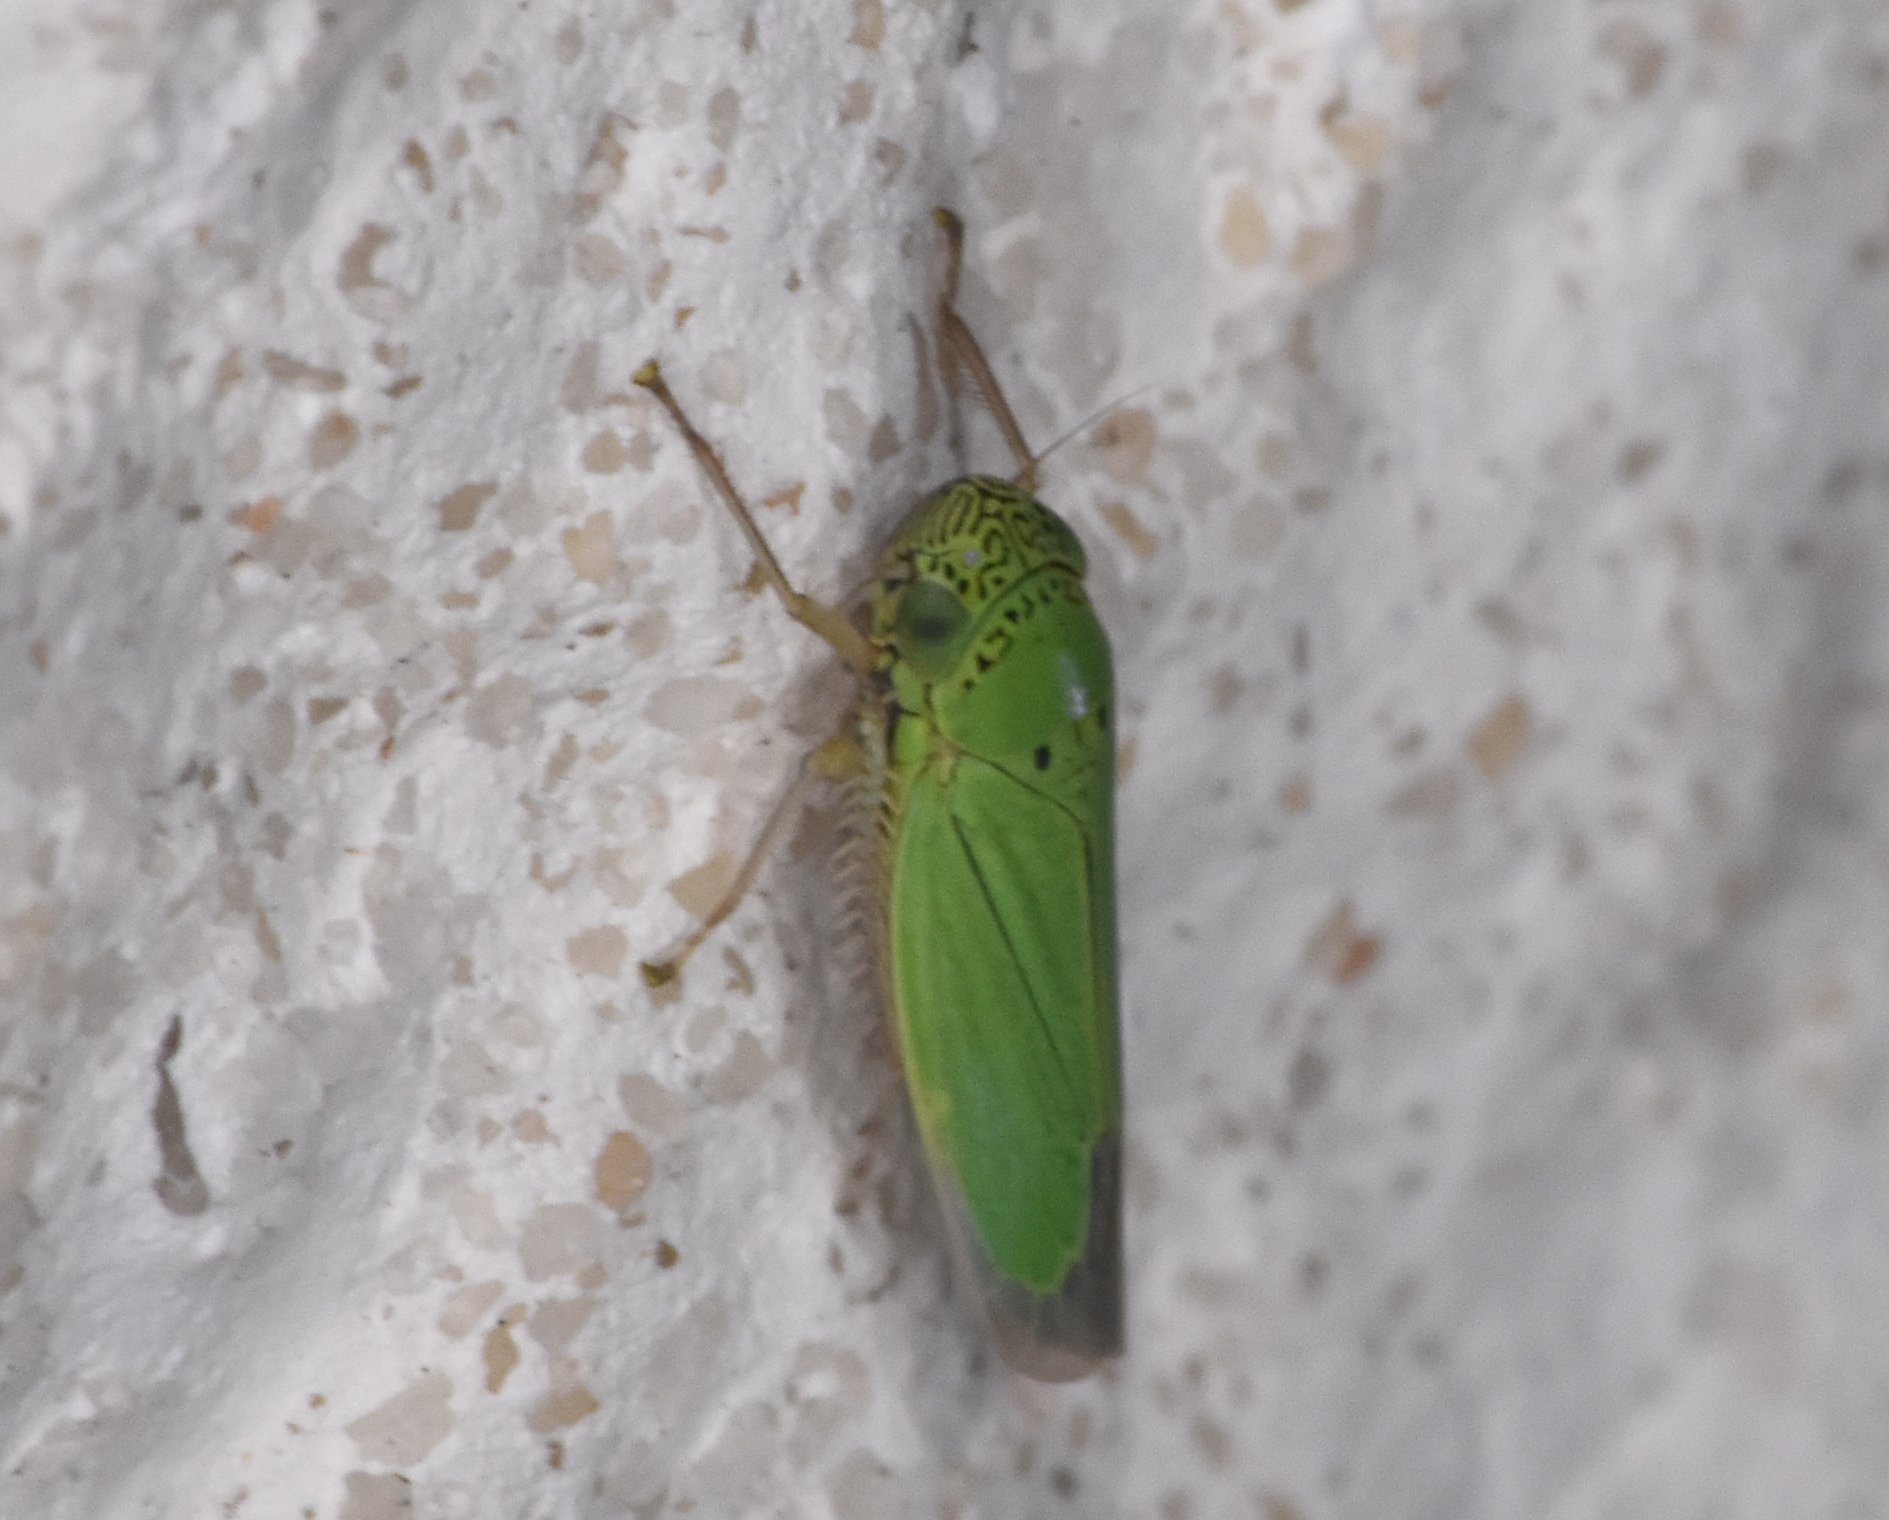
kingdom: Animalia
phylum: Arthropoda
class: Insecta
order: Hemiptera
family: Cicadellidae
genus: Hortensia
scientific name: Hortensia similis
